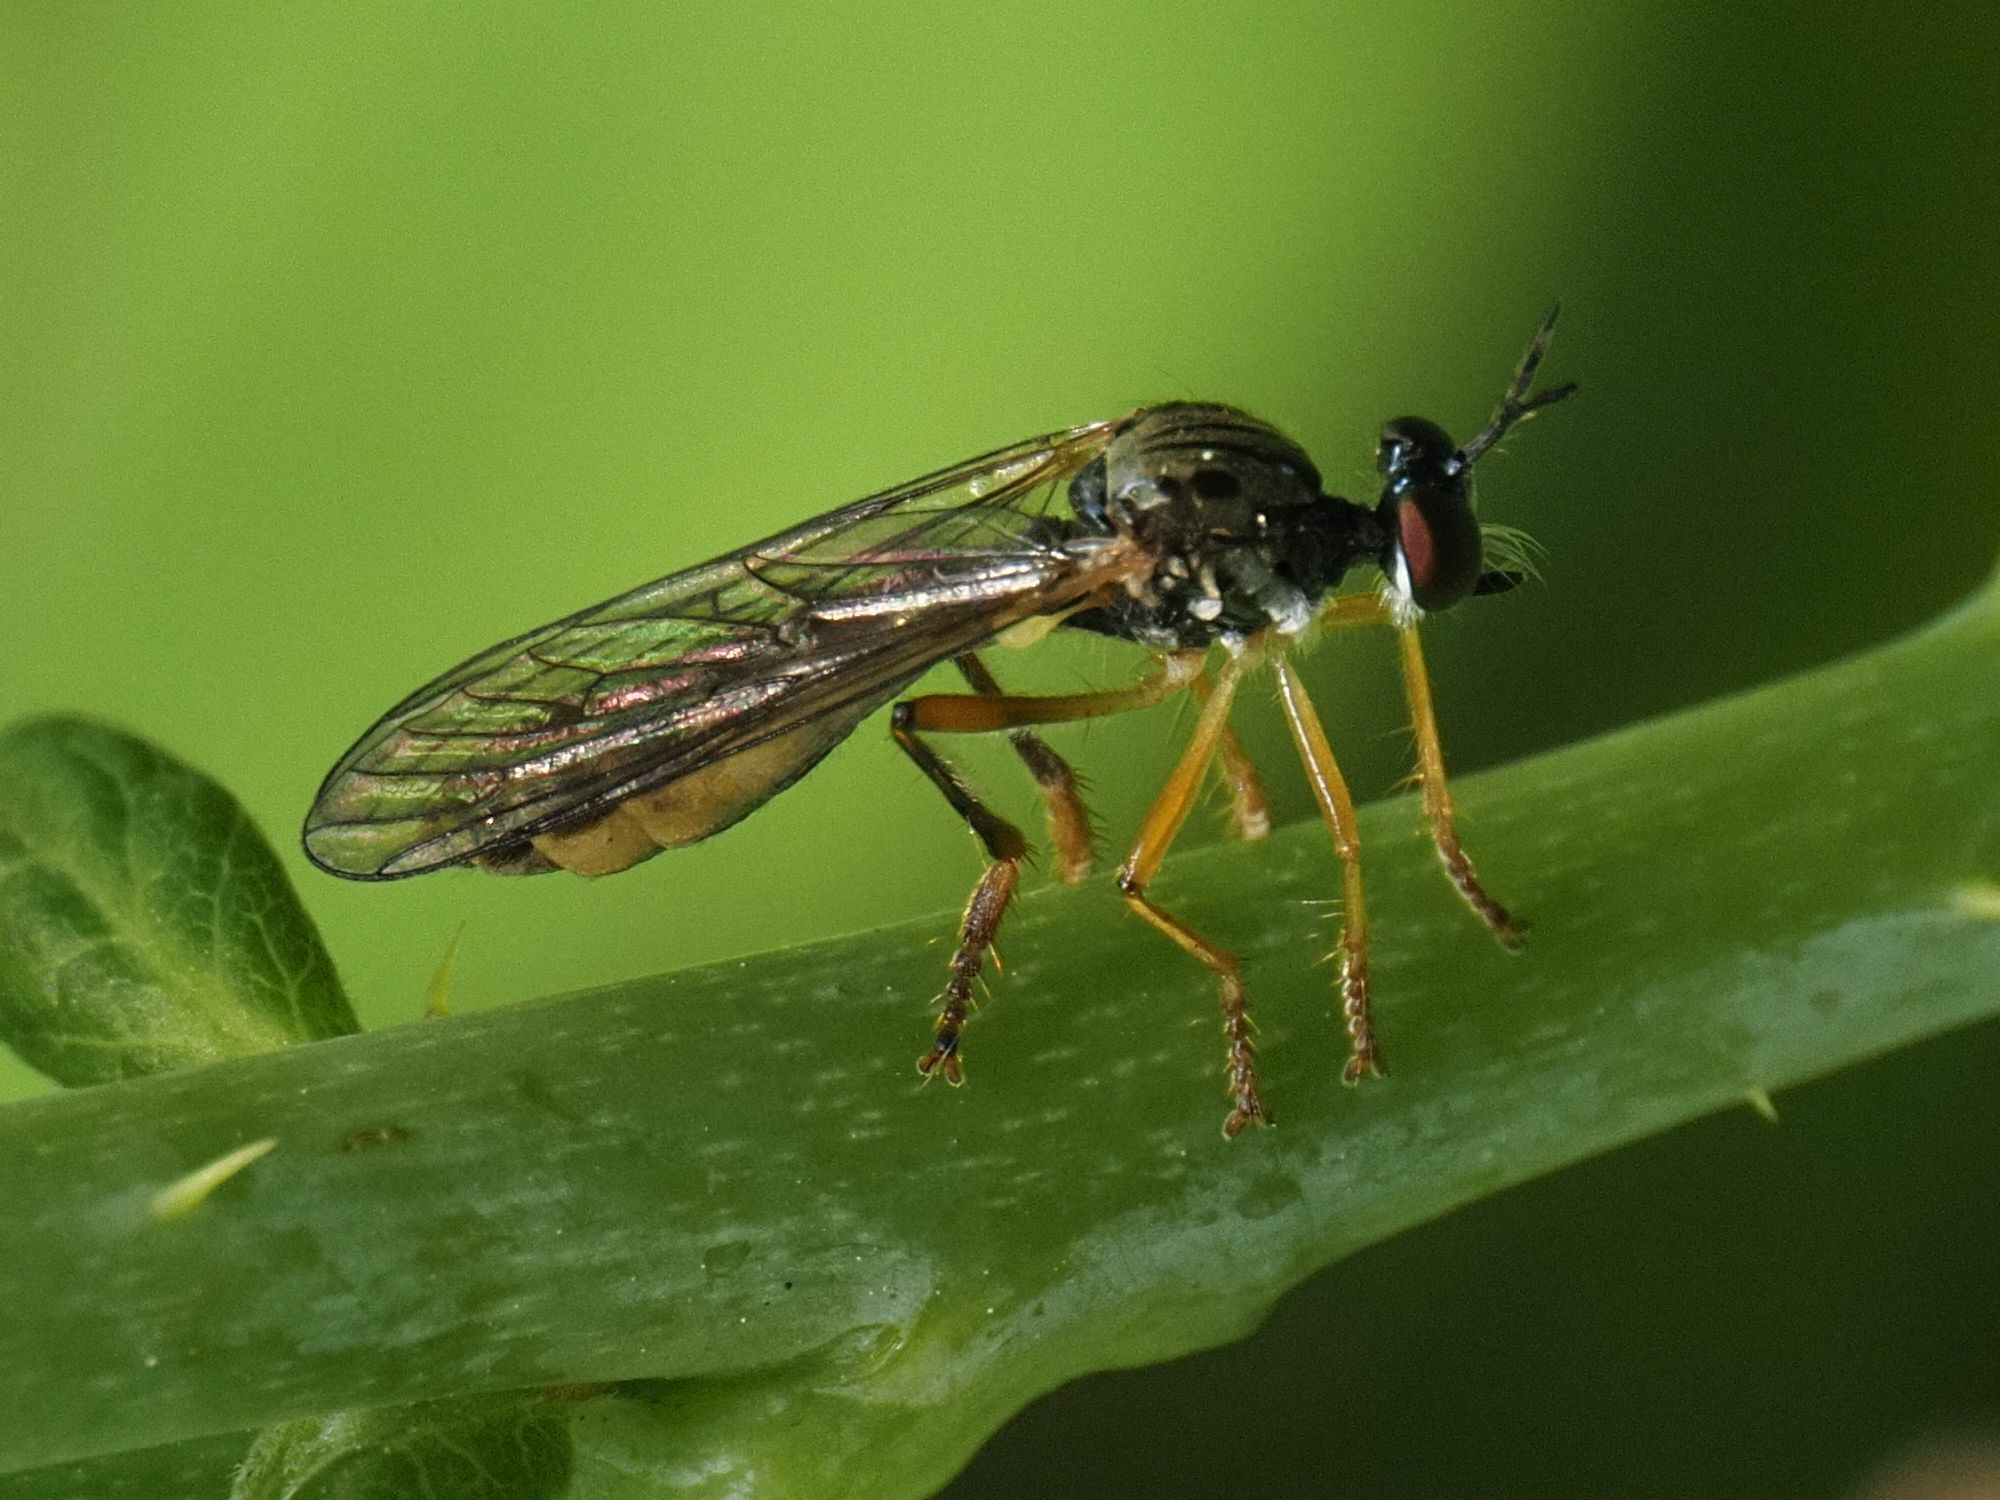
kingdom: Animalia
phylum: Arthropoda
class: Insecta
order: Diptera
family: Asilidae
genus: Dioctria
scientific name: Dioctria linearis
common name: Small yellow-legged robberfly
